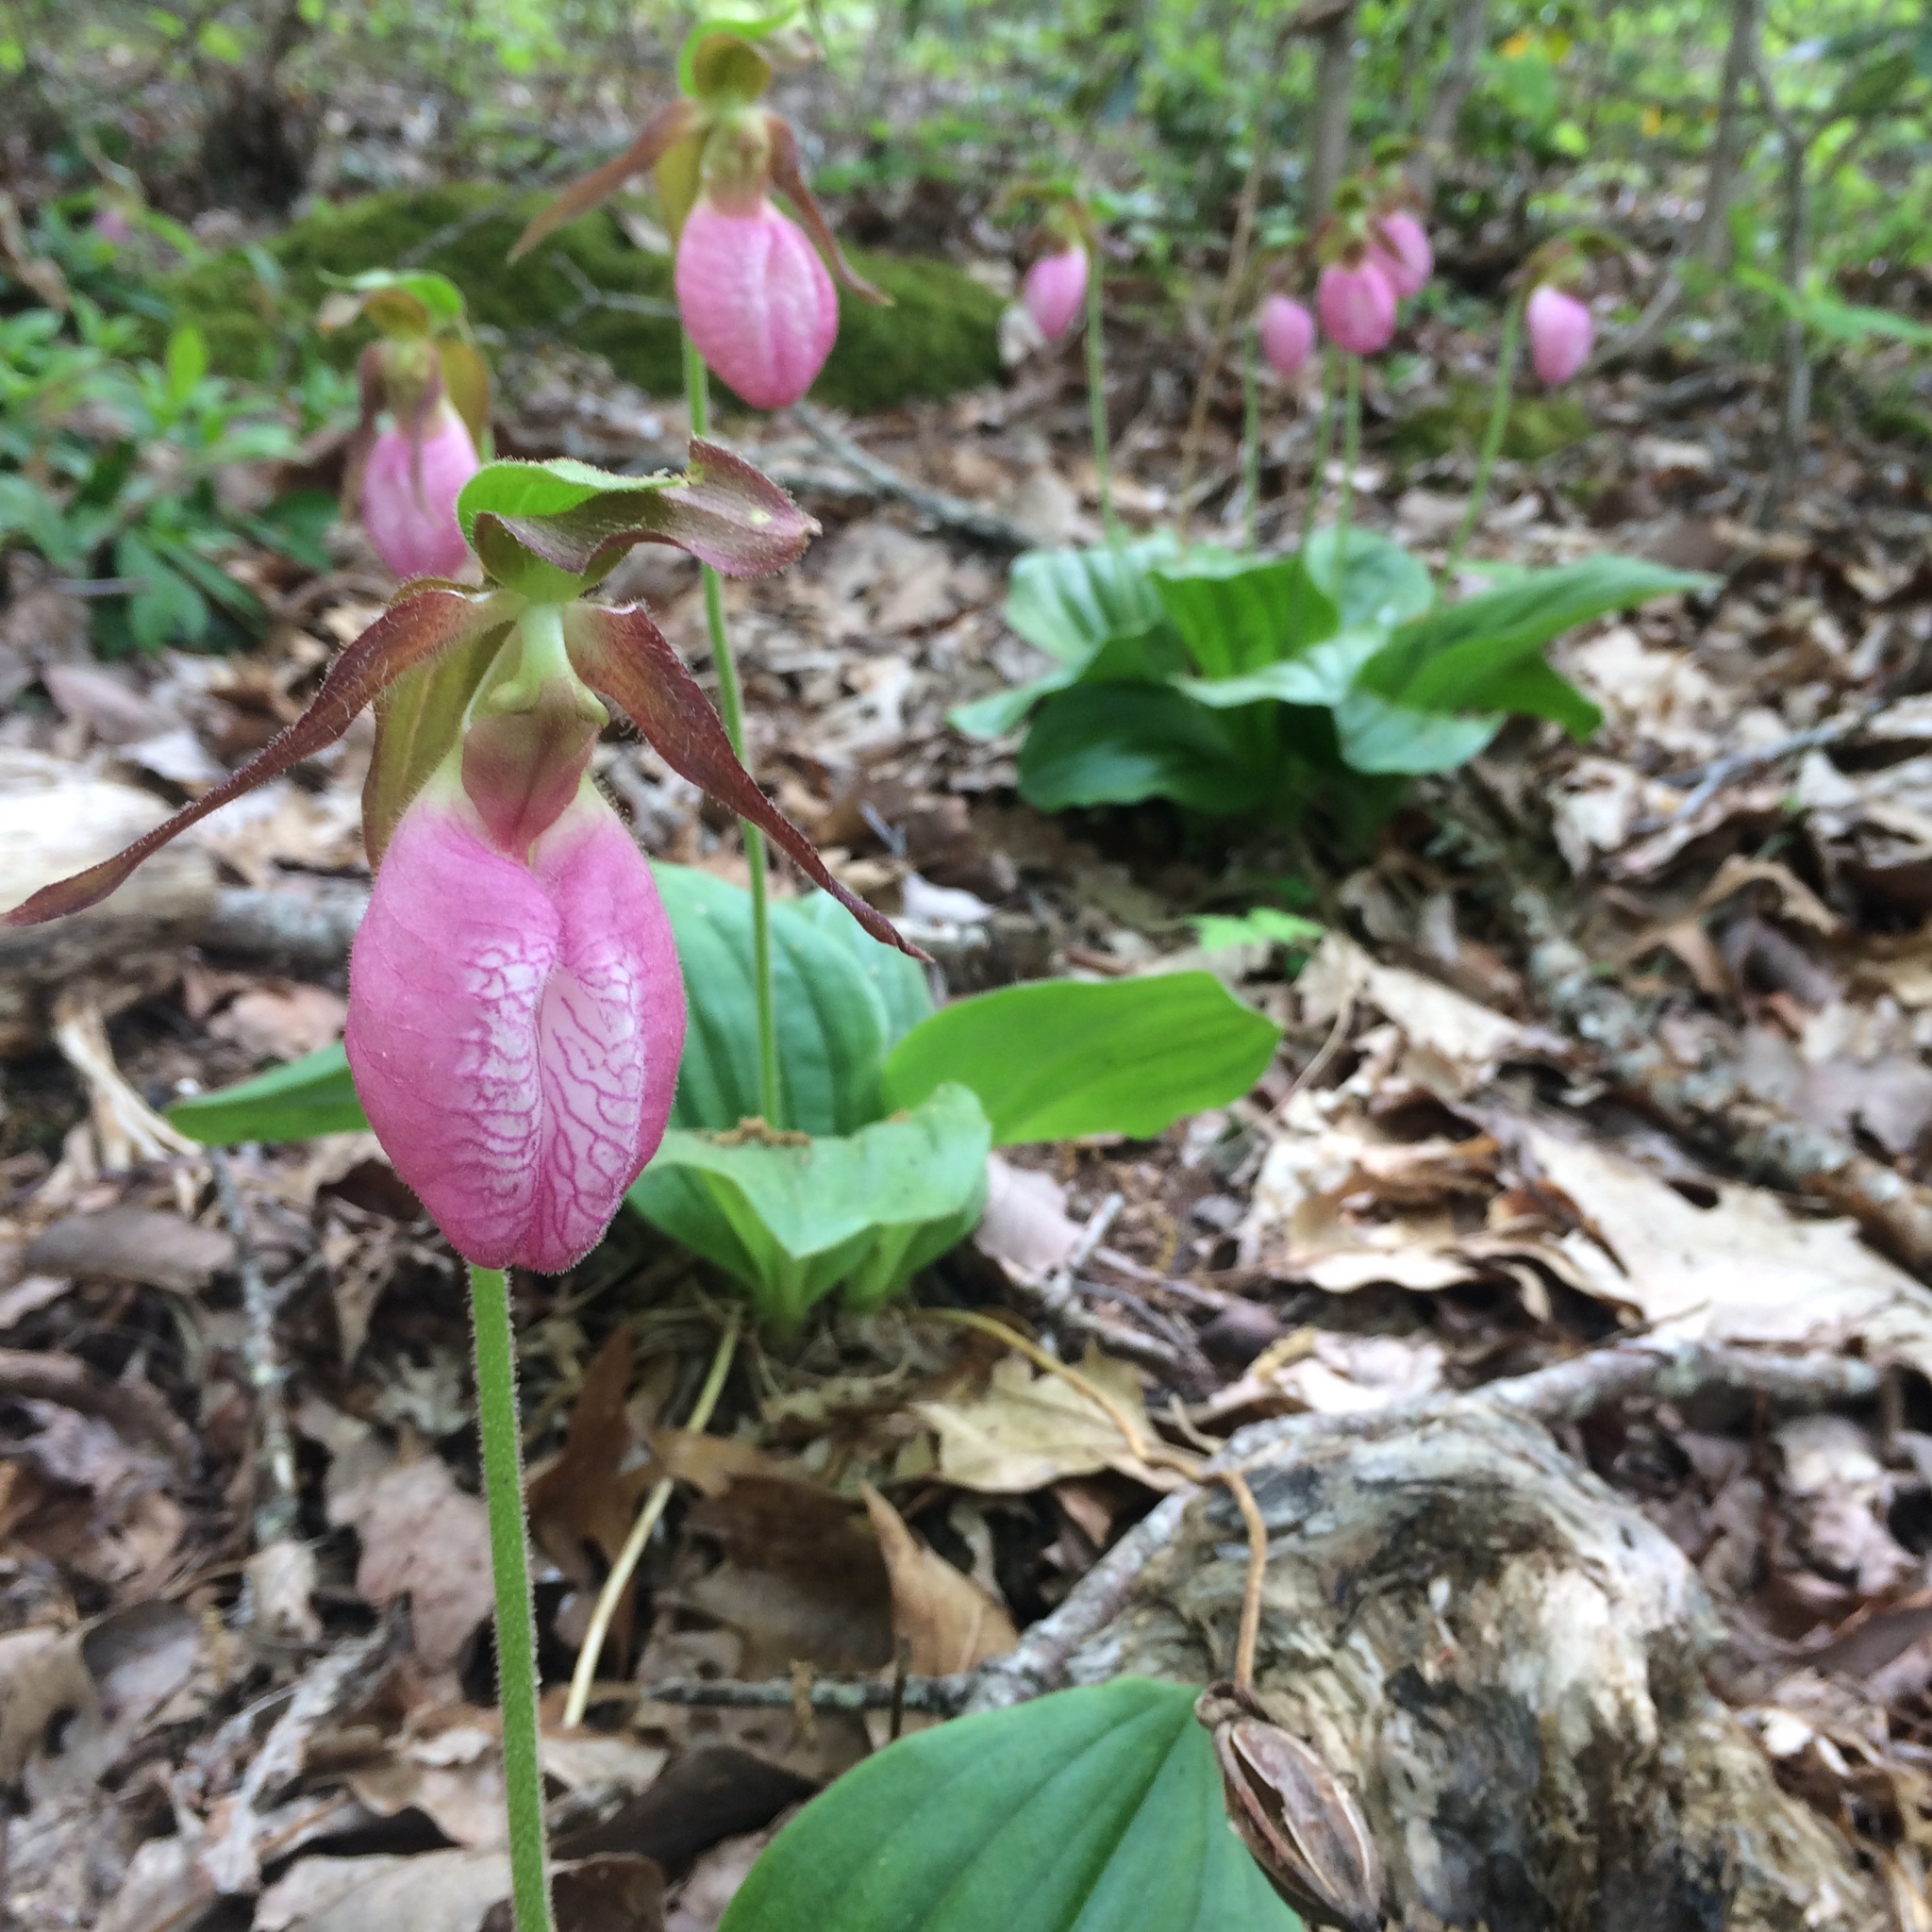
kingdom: Plantae
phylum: Tracheophyta
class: Liliopsida
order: Asparagales
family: Orchidaceae
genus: Cypripedium
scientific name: Cypripedium acaule
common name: Pink lady's-slipper
